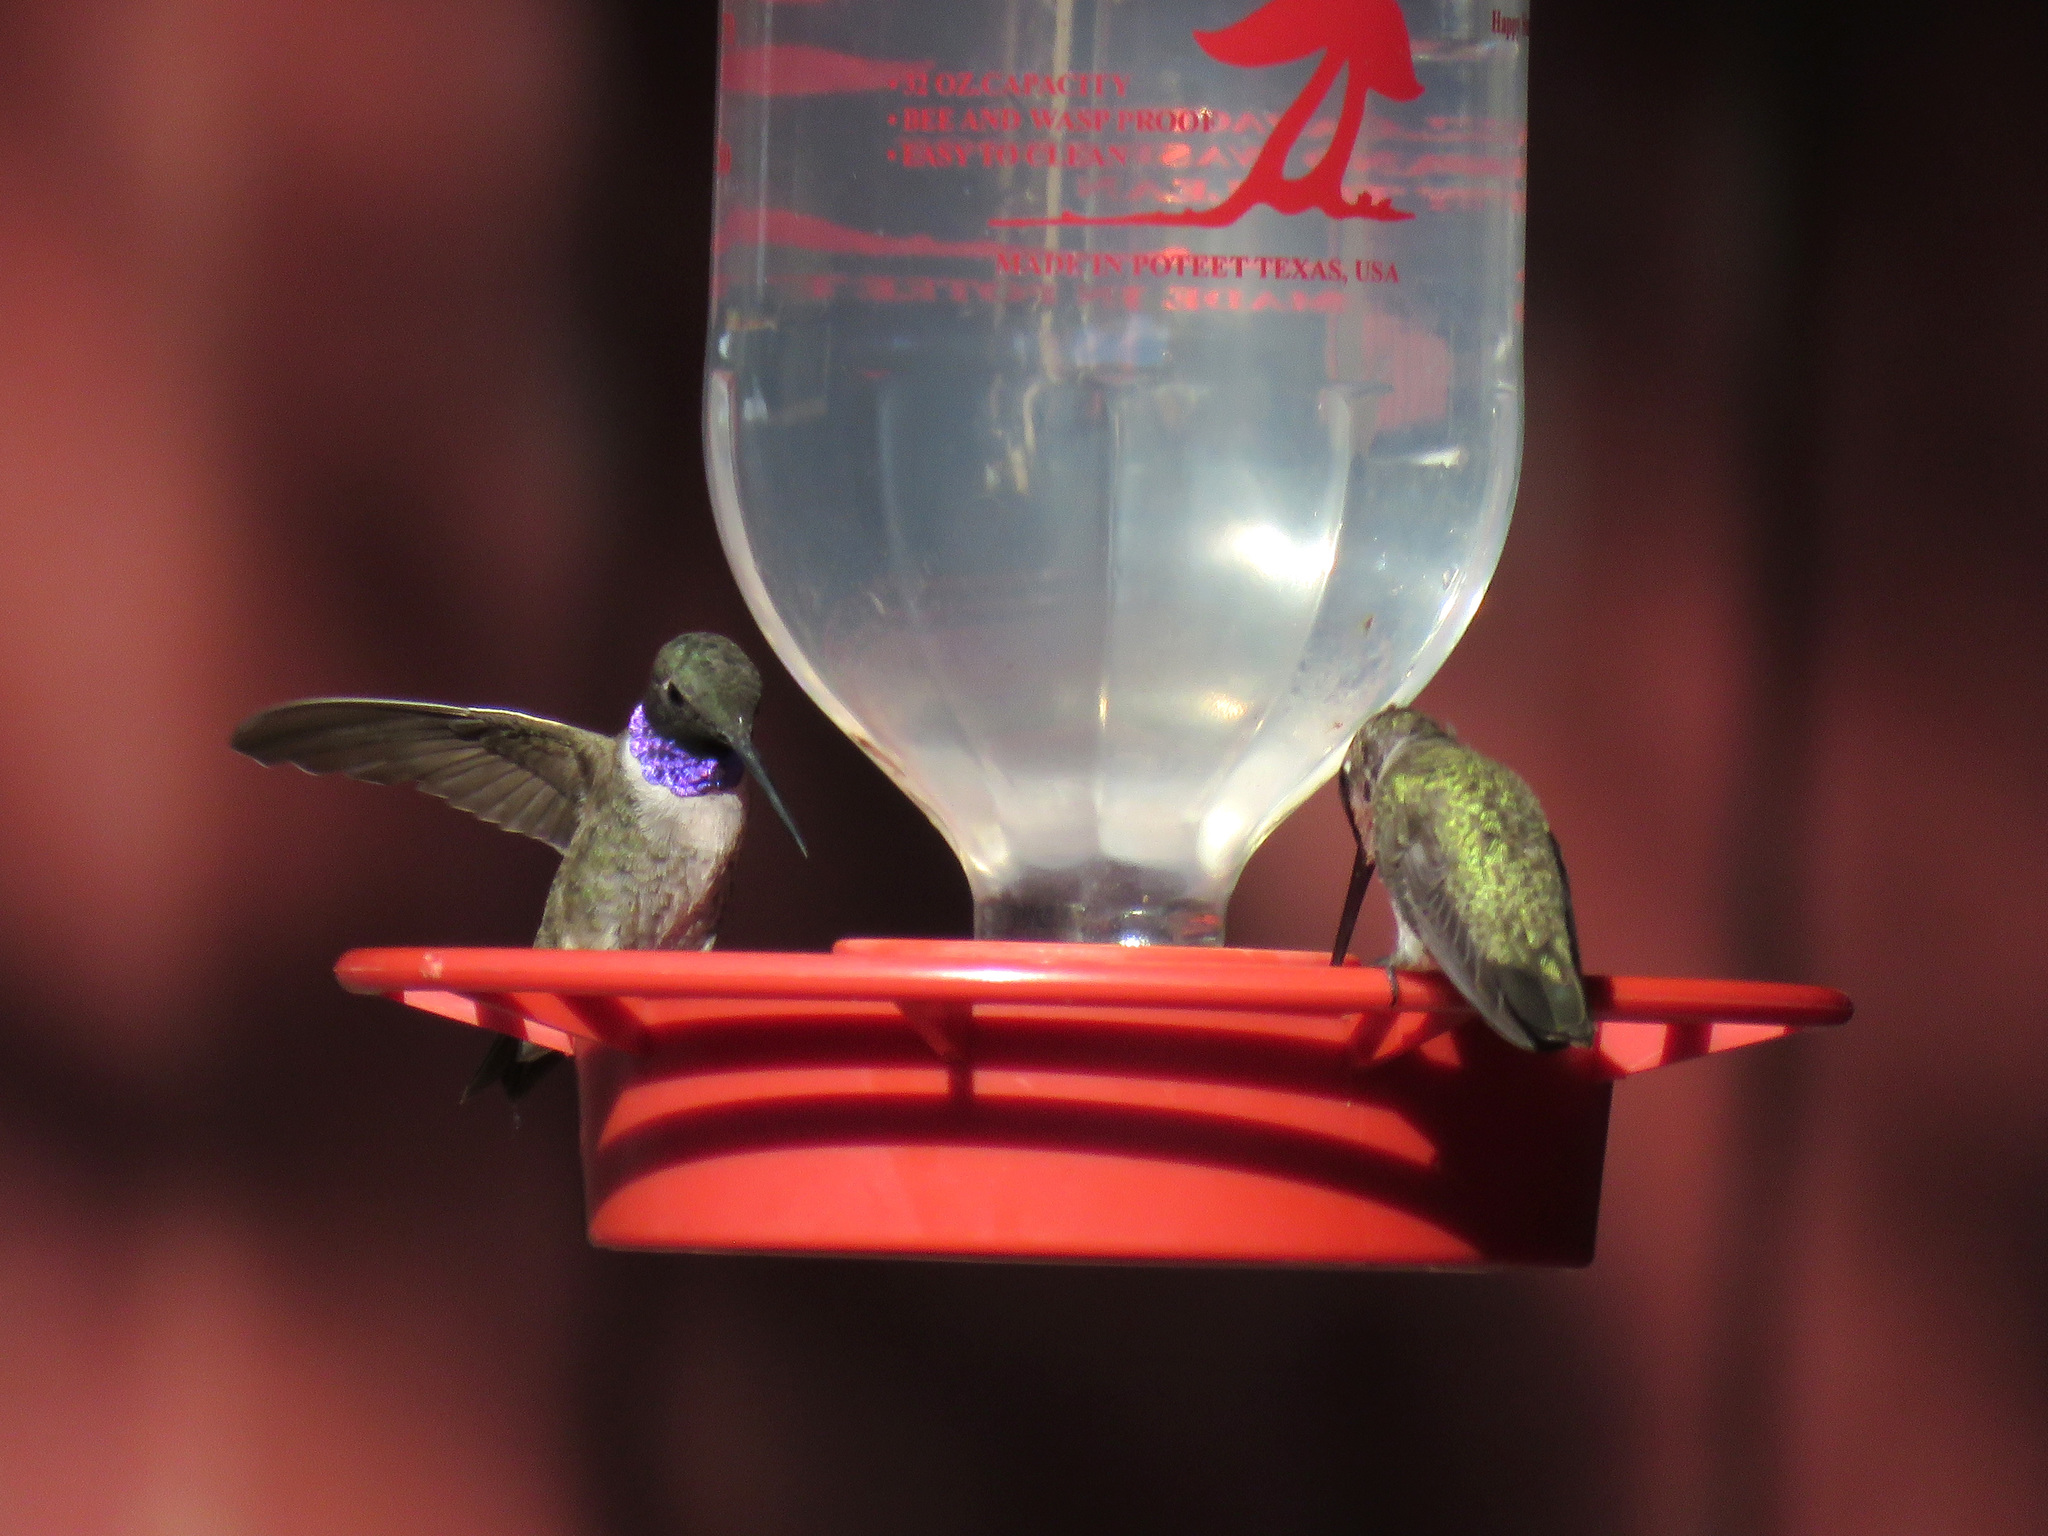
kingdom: Animalia
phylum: Chordata
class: Aves
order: Apodiformes
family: Trochilidae
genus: Archilochus
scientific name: Archilochus alexandri
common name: Black-chinned hummingbird
